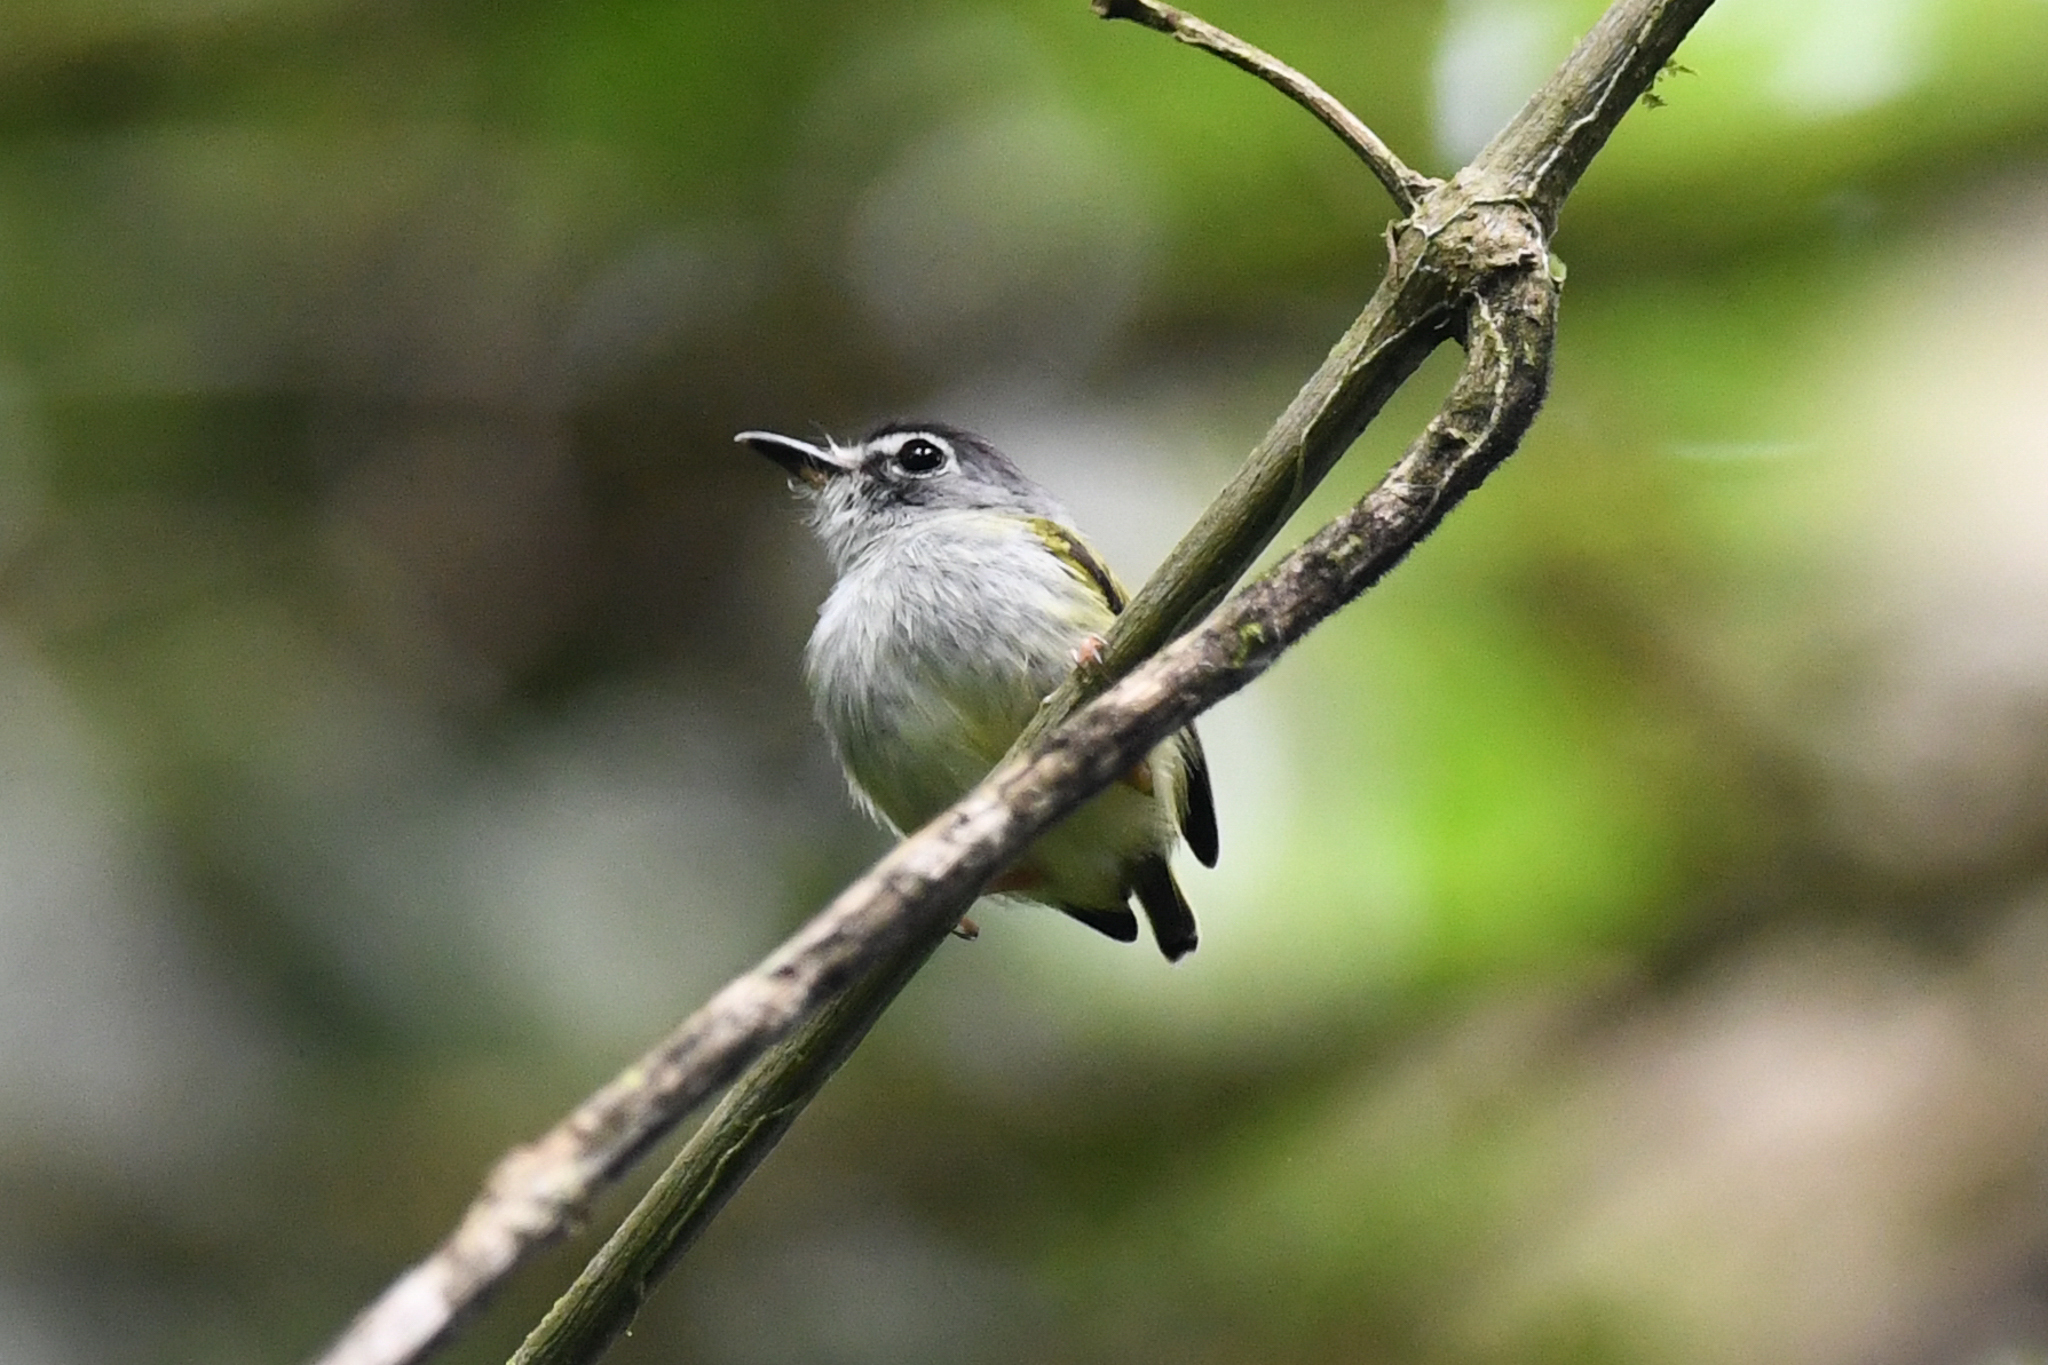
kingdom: Animalia
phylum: Chordata
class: Aves
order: Passeriformes
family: Tyrannidae
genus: Myiornis
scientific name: Myiornis atricapillus
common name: Black-capped pygmy-tyrant
